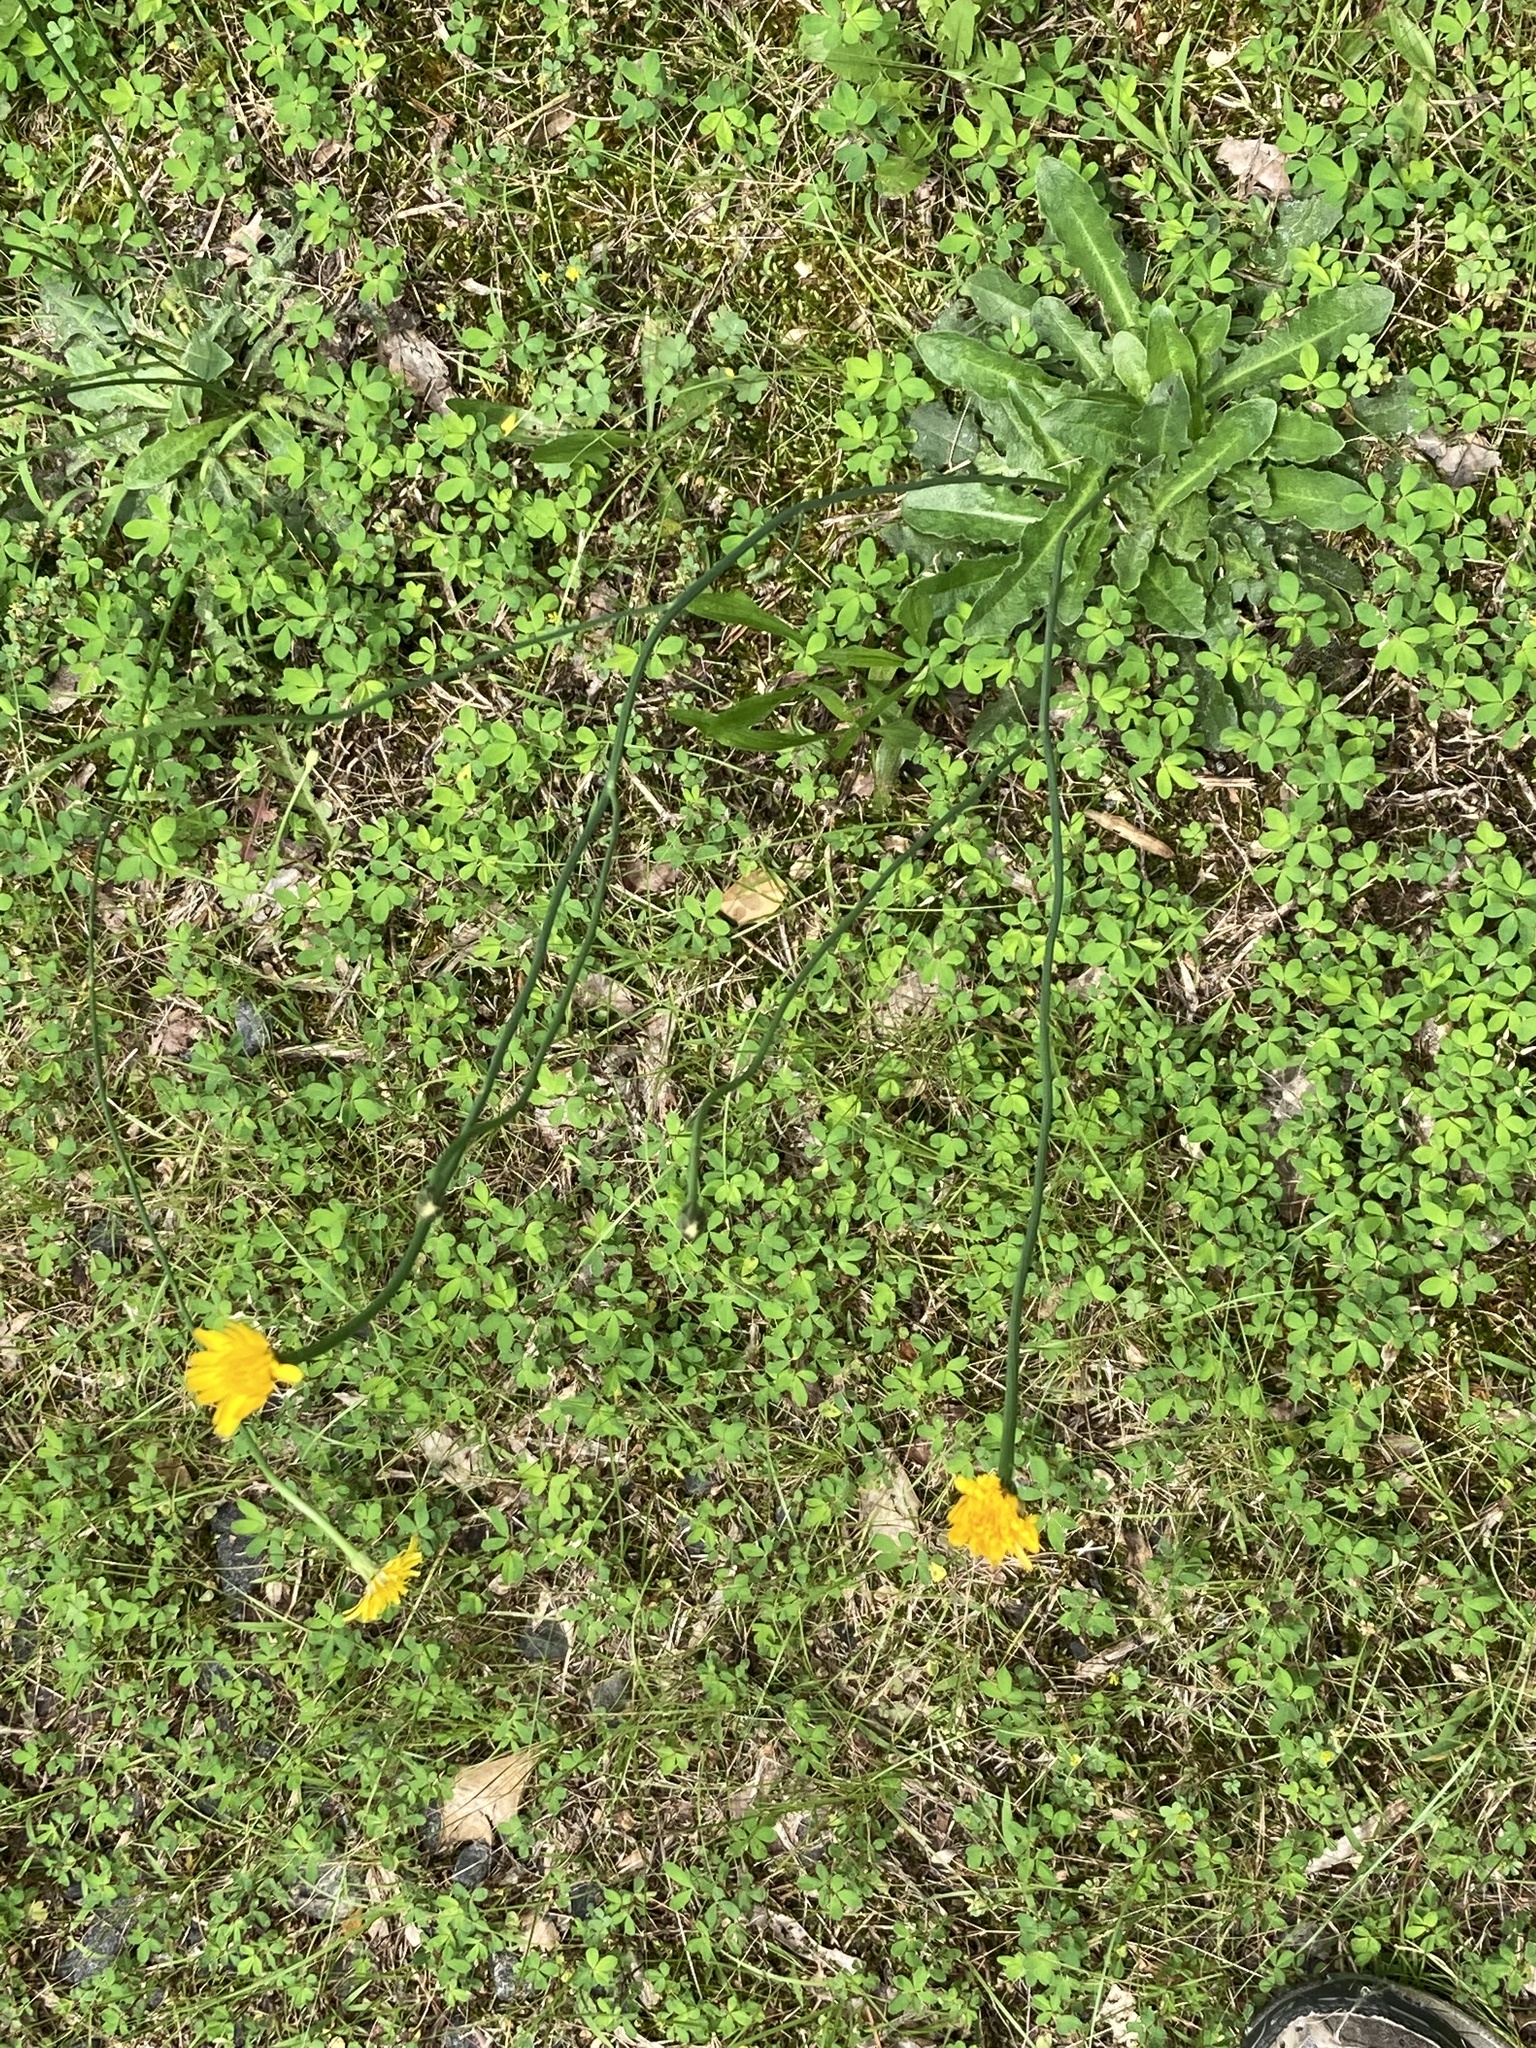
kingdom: Plantae
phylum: Tracheophyta
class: Magnoliopsida
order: Asterales
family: Asteraceae
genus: Hypochaeris
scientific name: Hypochaeris radicata
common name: Flatweed
